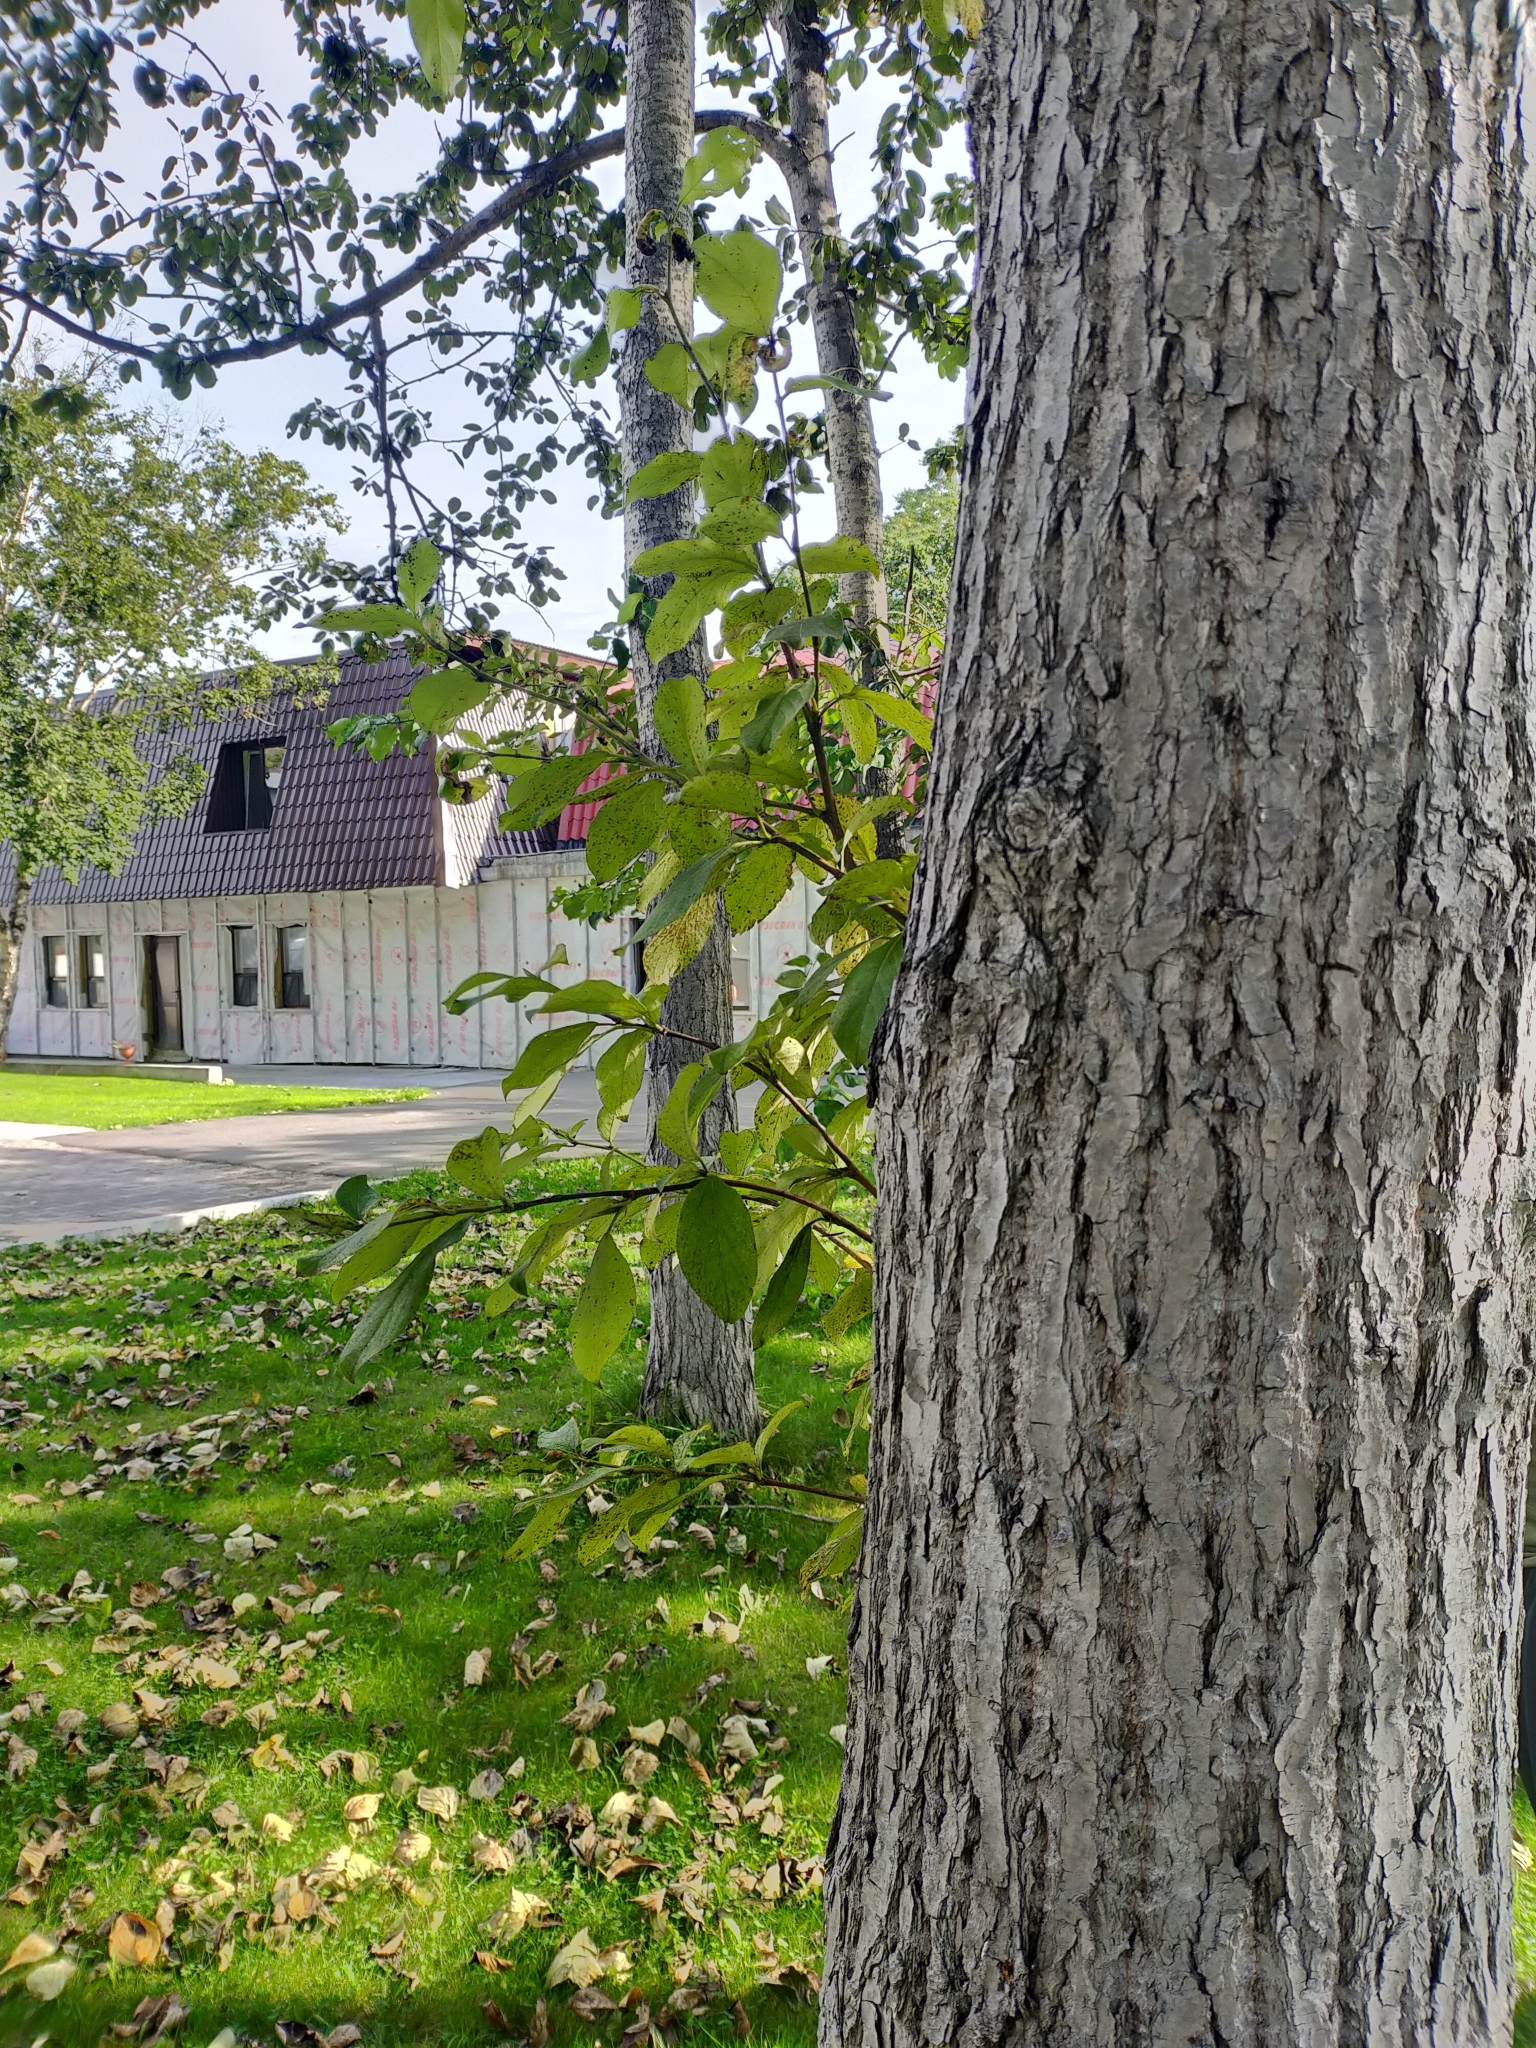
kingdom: Plantae
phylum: Tracheophyta
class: Magnoliopsida
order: Malpighiales
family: Salicaceae
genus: Populus
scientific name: Populus suaveolens
